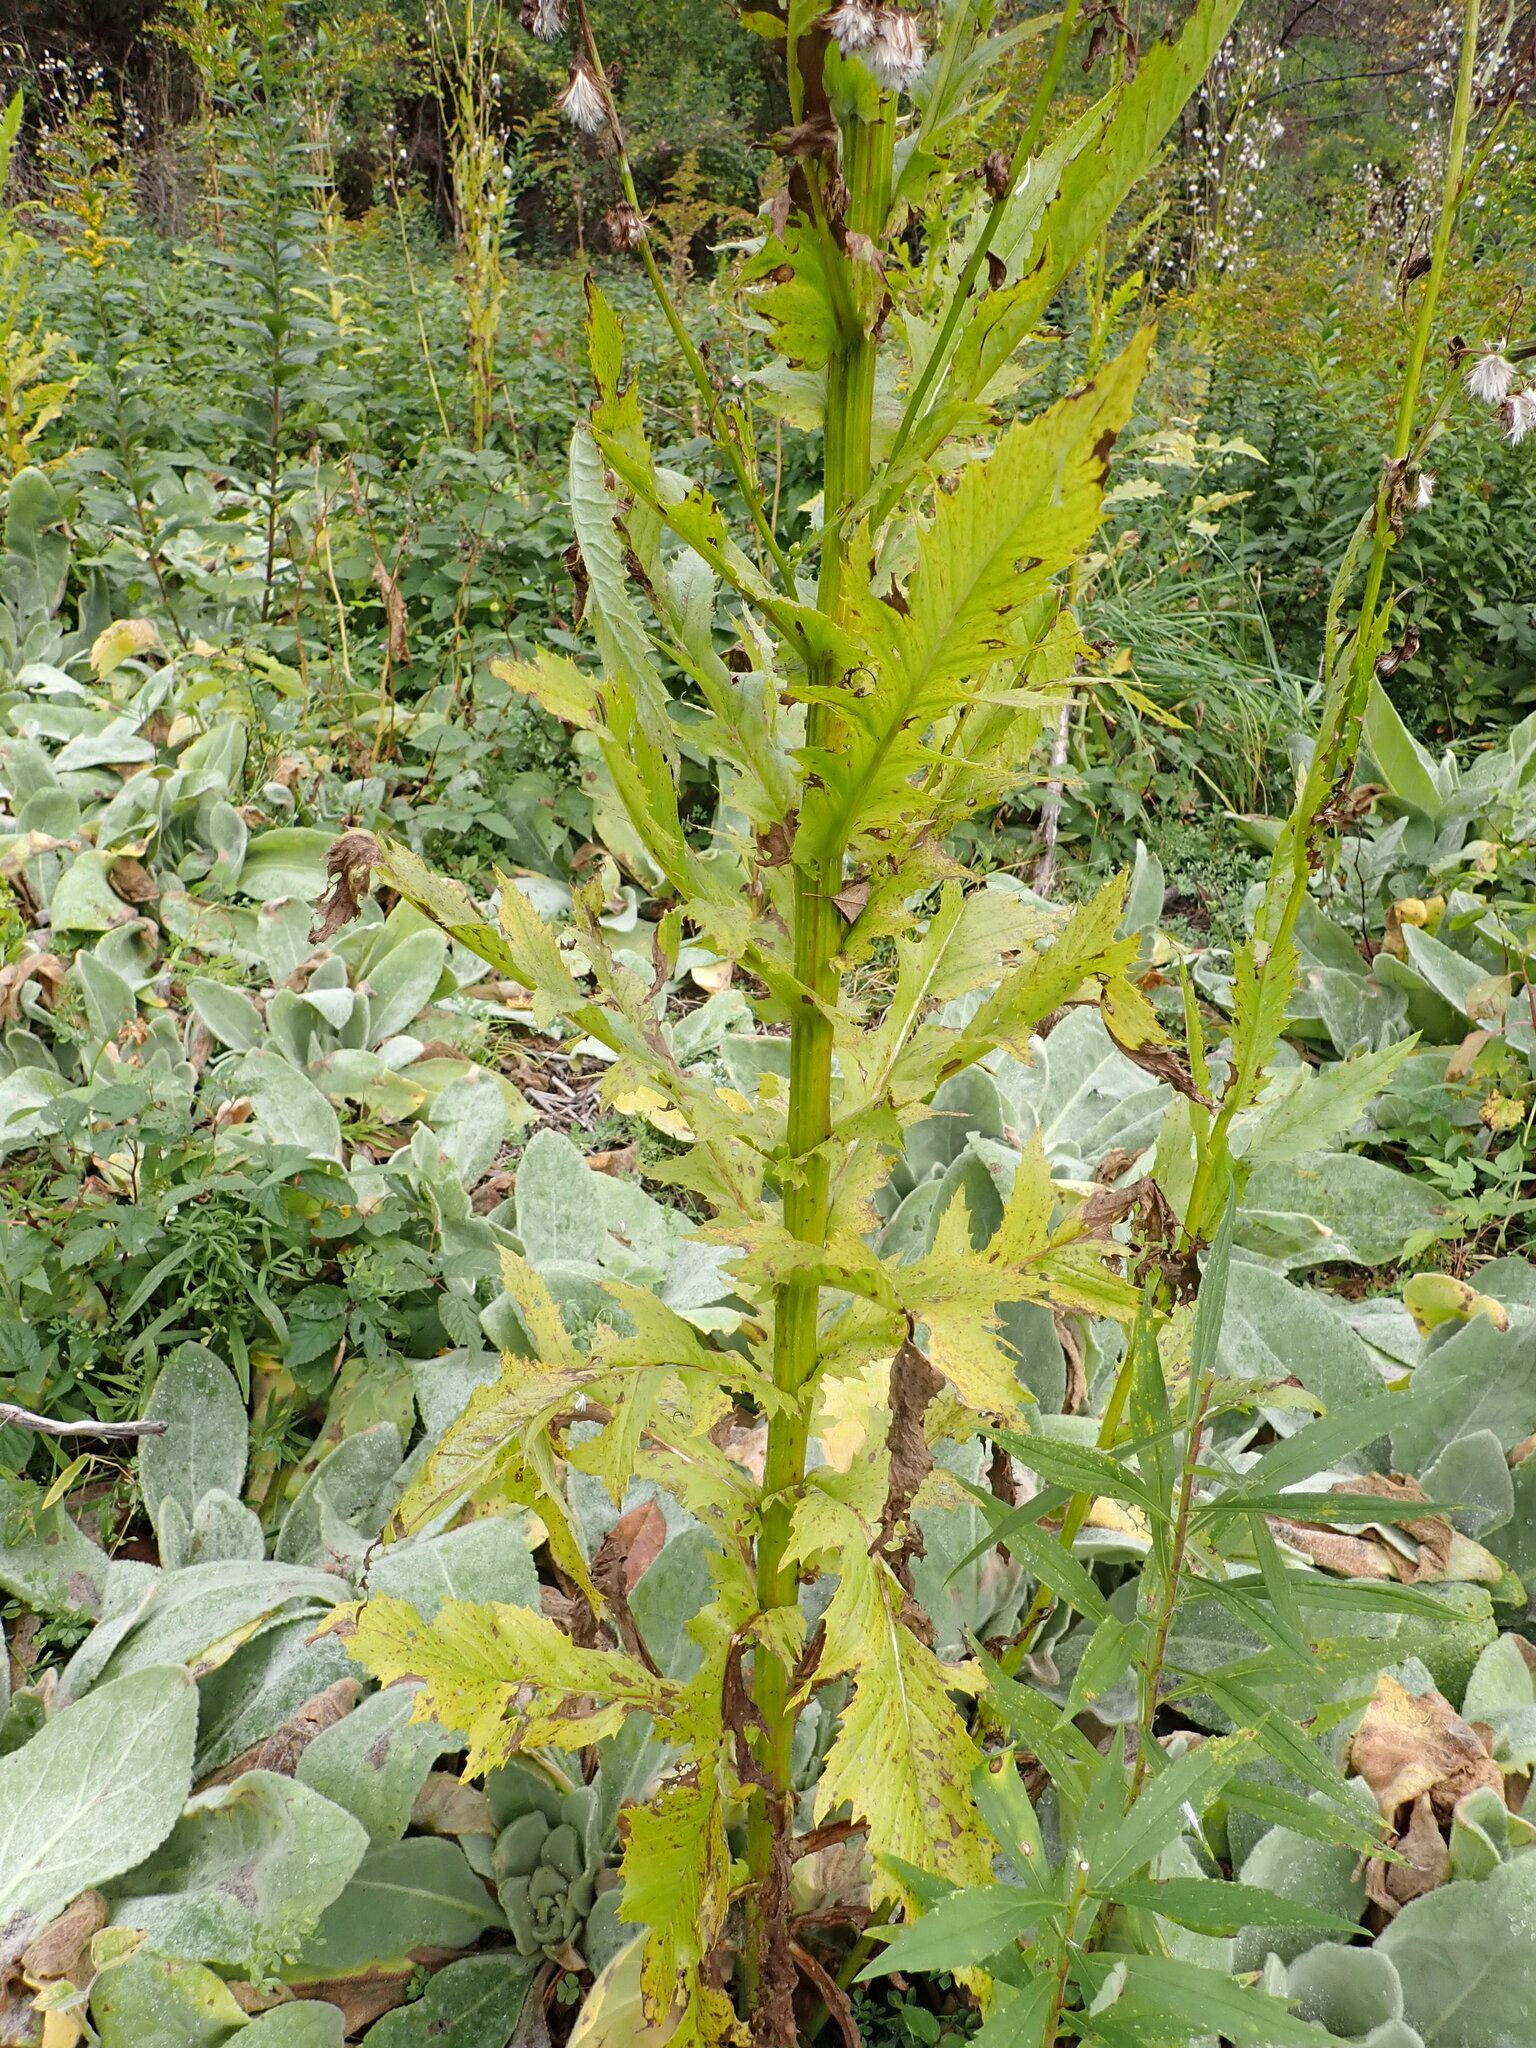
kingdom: Plantae
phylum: Tracheophyta
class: Magnoliopsida
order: Asterales
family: Asteraceae
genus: Erechtites
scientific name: Erechtites hieraciifolius
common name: American burnweed
